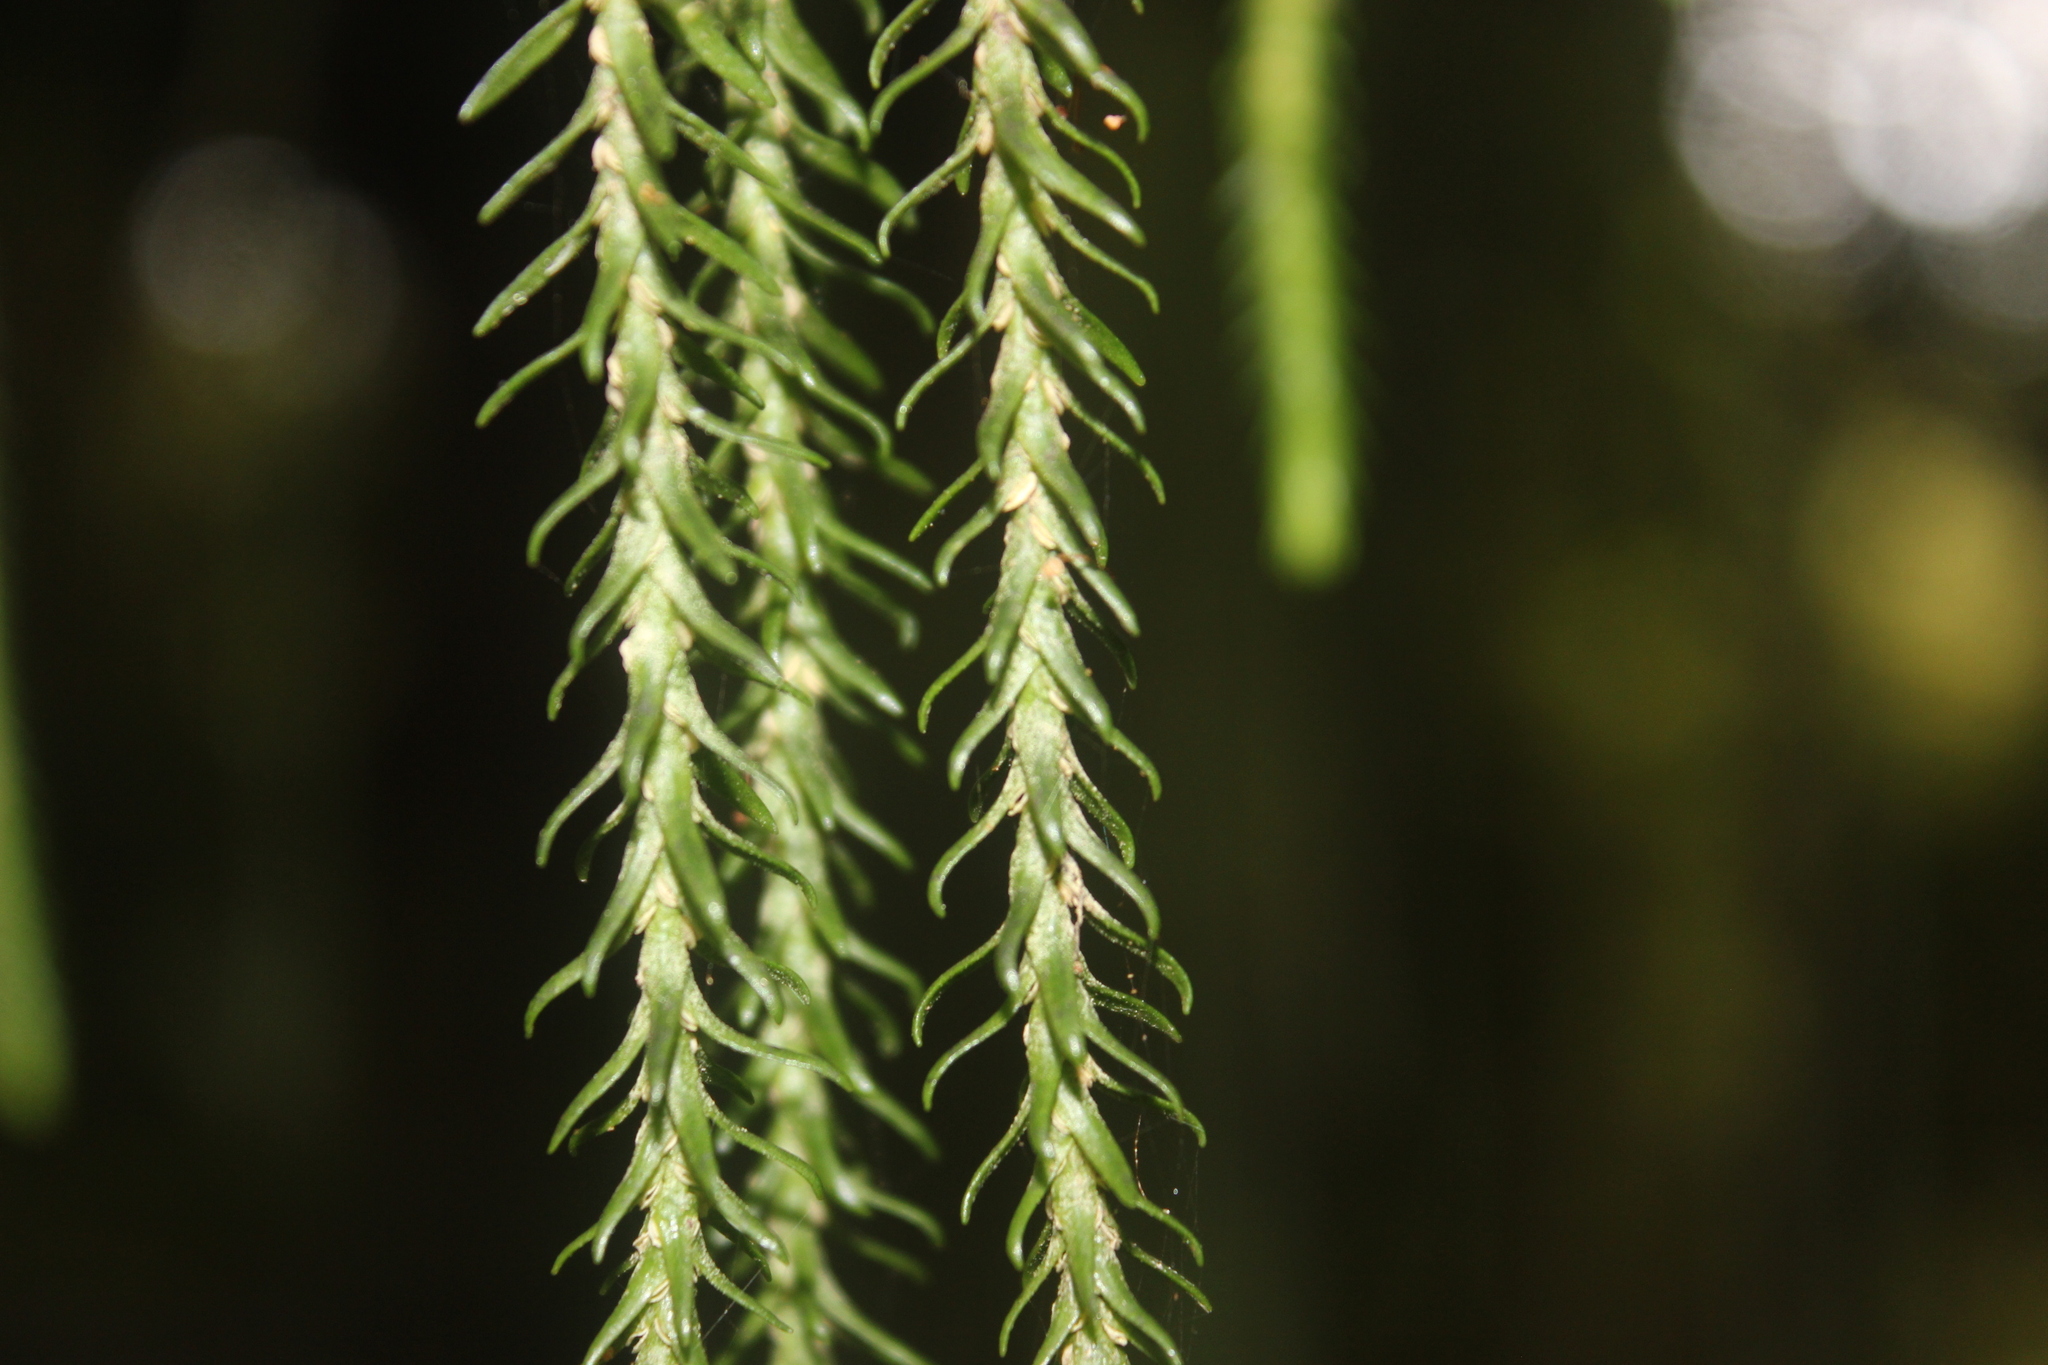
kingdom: Plantae
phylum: Tracheophyta
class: Lycopodiopsida
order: Lycopodiales
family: Lycopodiaceae
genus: Phlegmariurus
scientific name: Phlegmariurus varius
